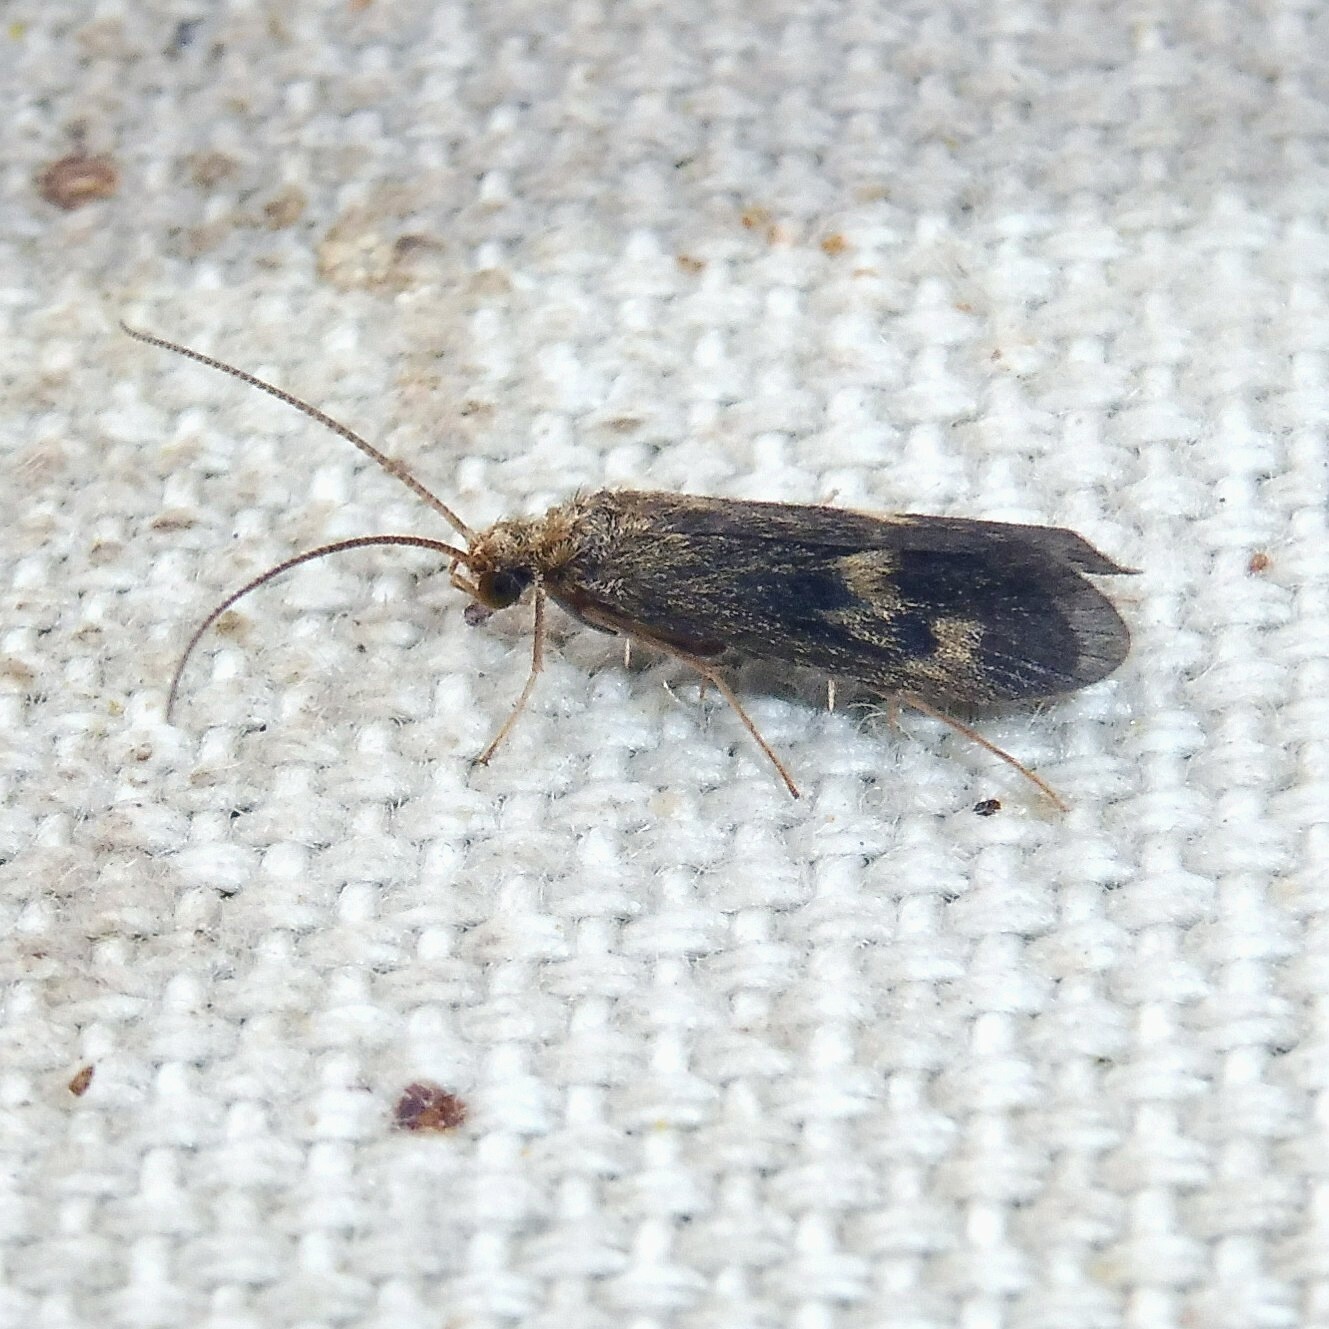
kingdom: Animalia
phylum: Arthropoda
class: Insecta
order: Trichoptera
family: Polycentropodidae
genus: Neureclipsis
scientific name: Neureclipsis bimaculata
